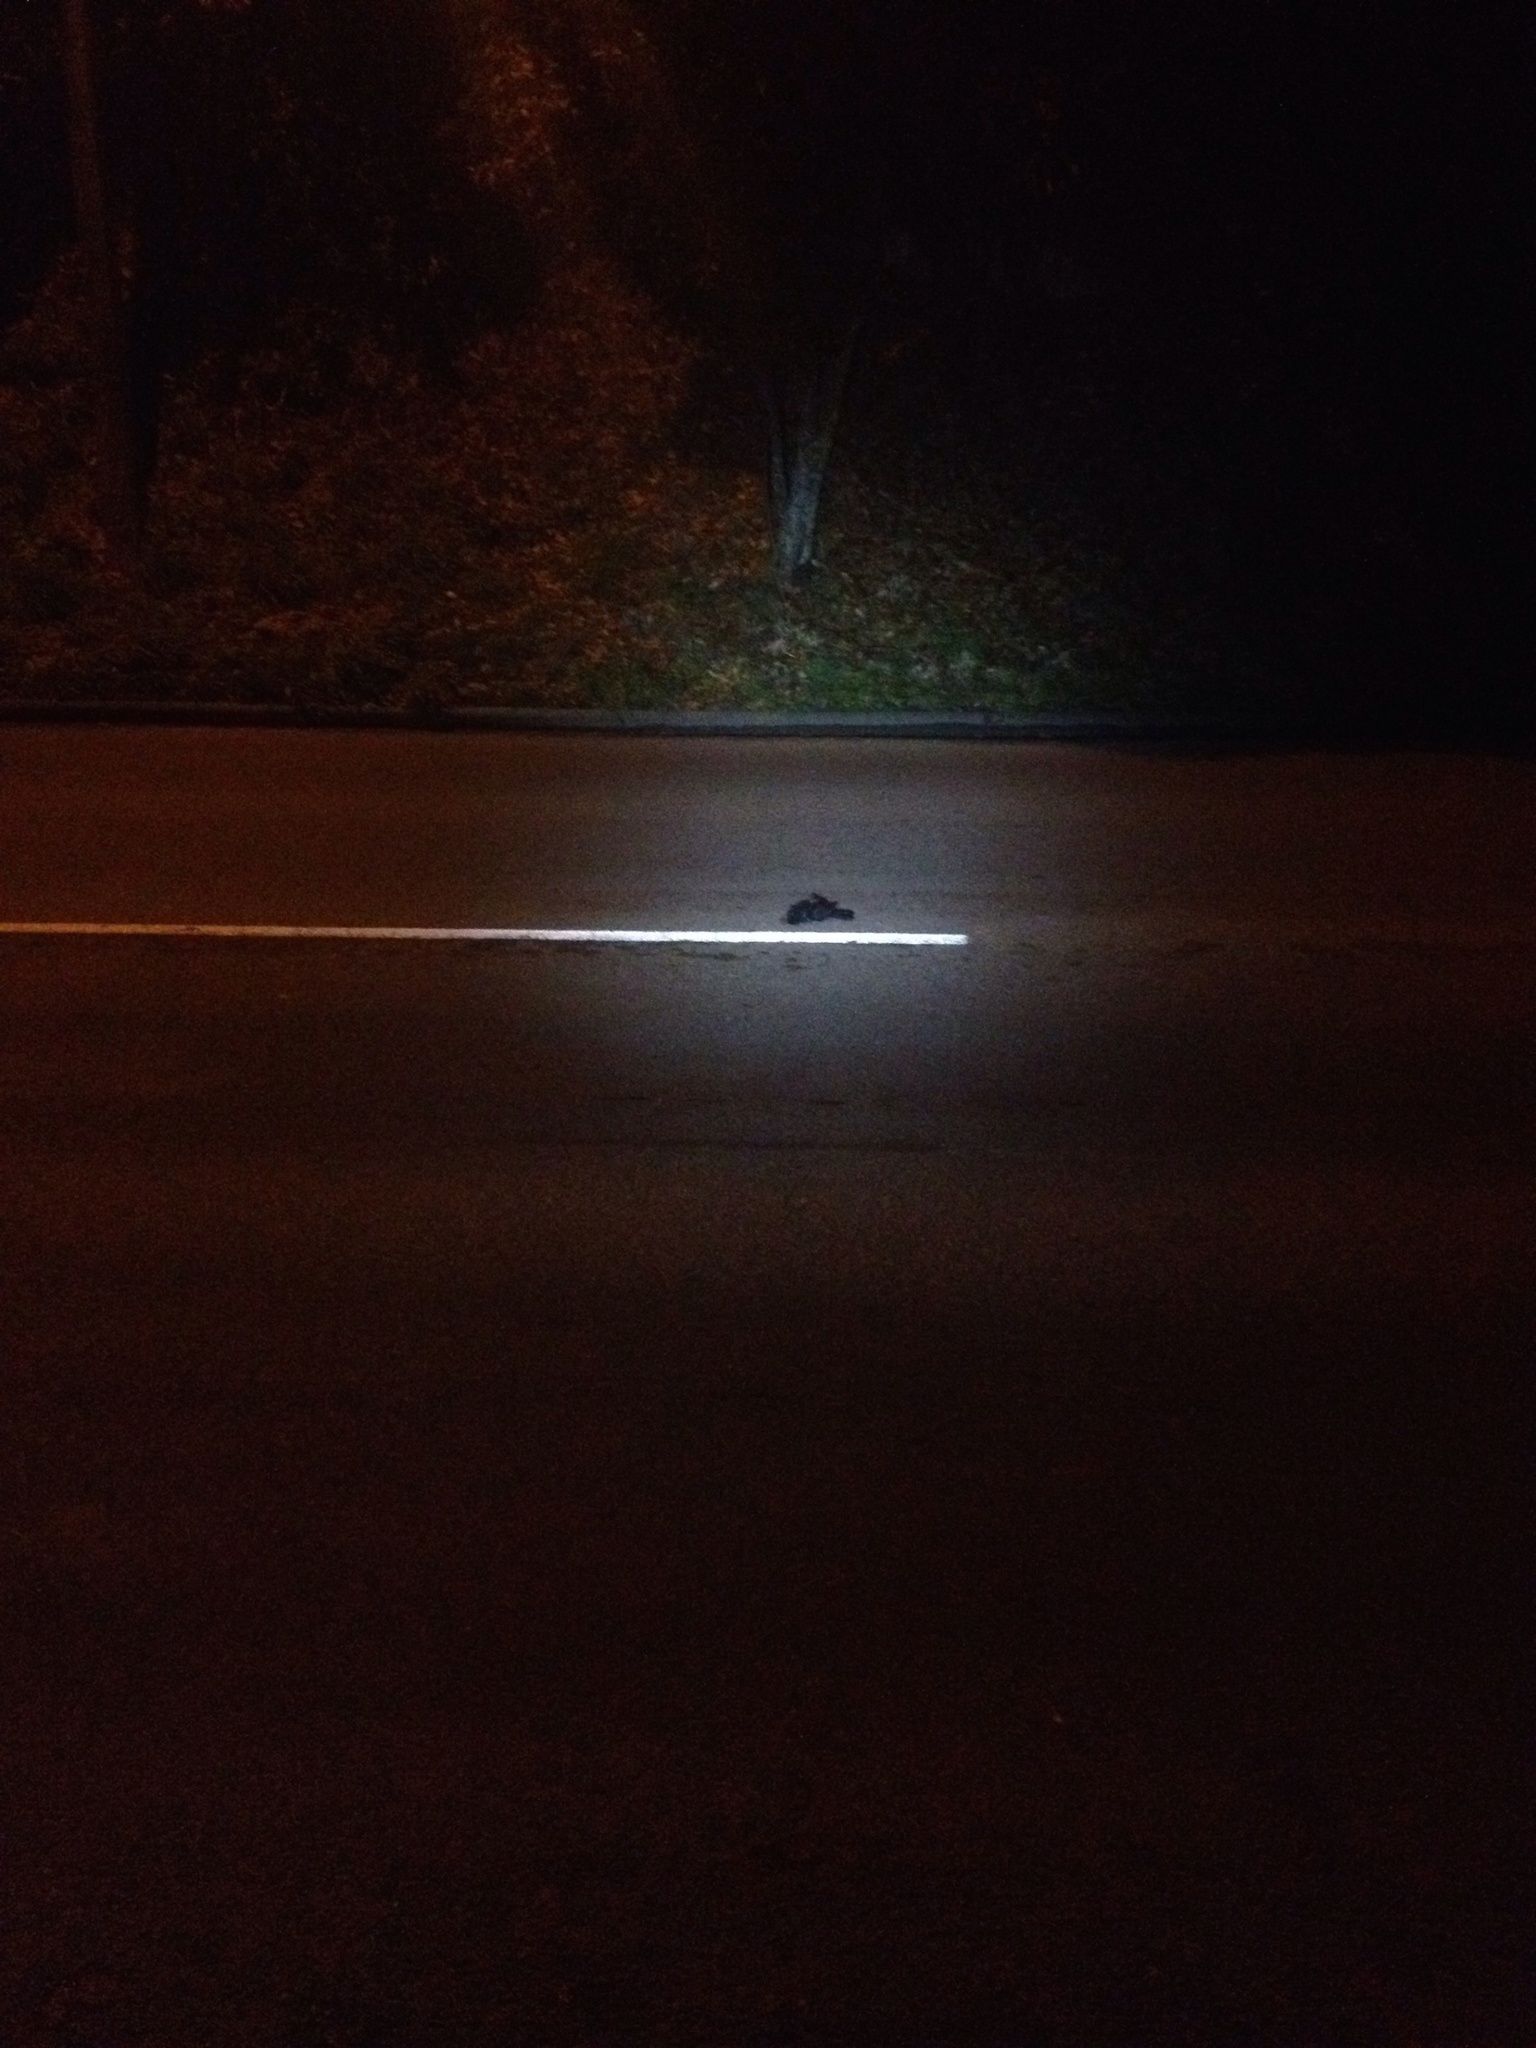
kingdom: Animalia
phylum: Chordata
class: Aves
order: Passeriformes
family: Turdidae
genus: Turdus
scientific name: Turdus merula
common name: Common blackbird
